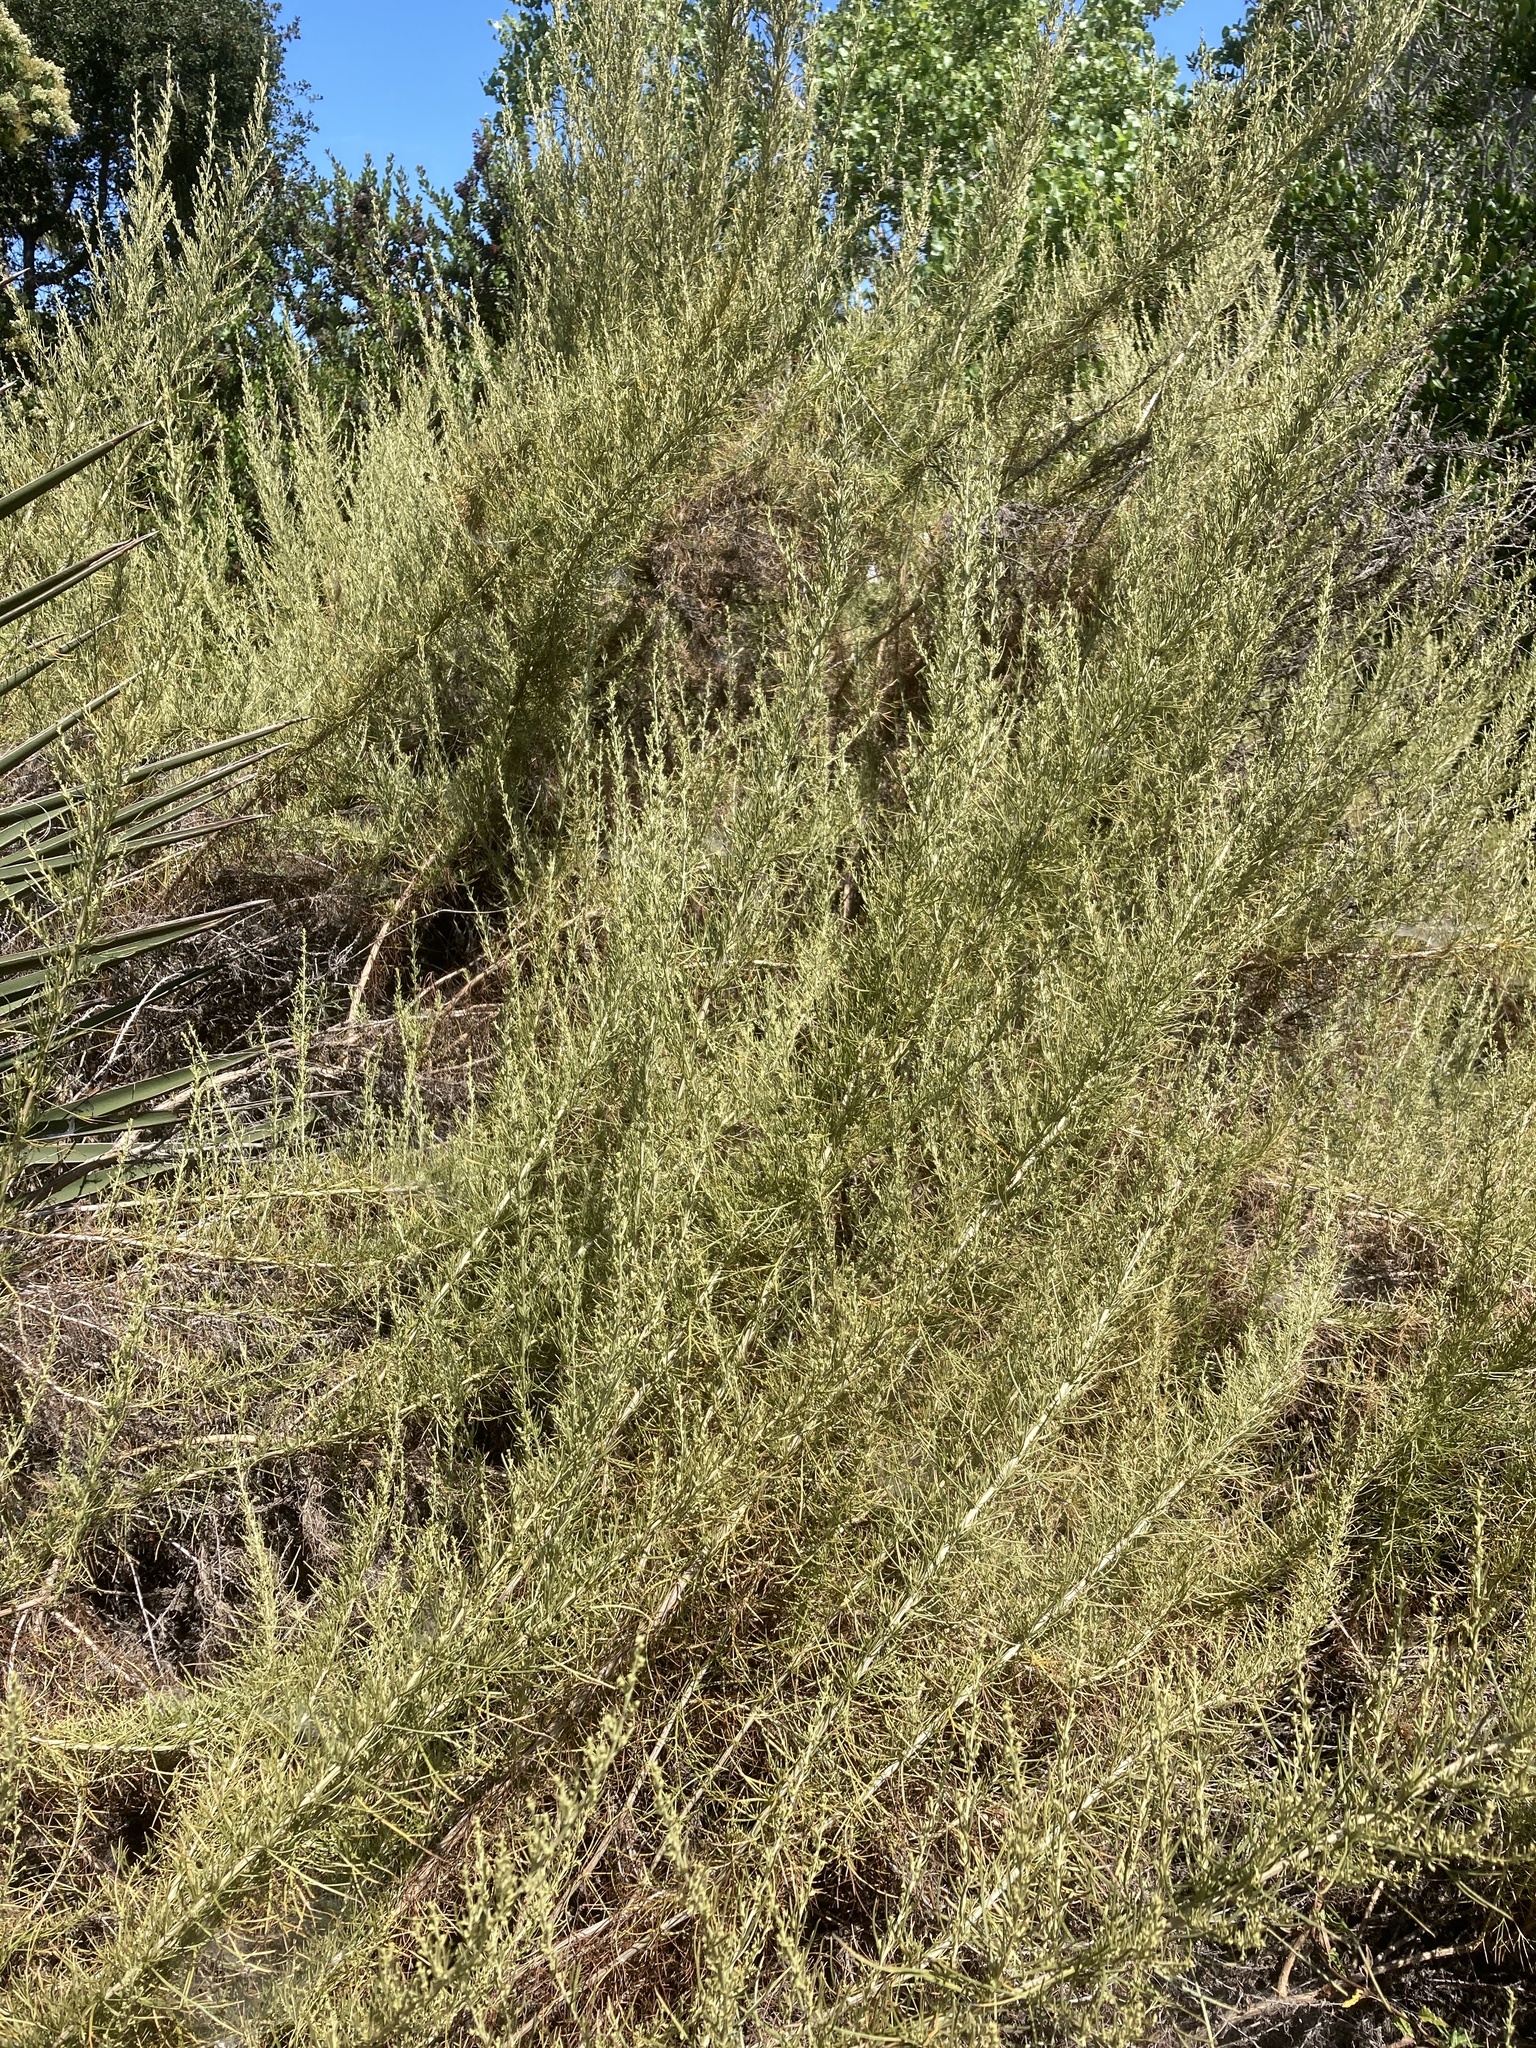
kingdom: Plantae
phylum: Tracheophyta
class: Magnoliopsida
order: Asterales
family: Asteraceae
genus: Artemisia
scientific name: Artemisia californica
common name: California sagebrush
